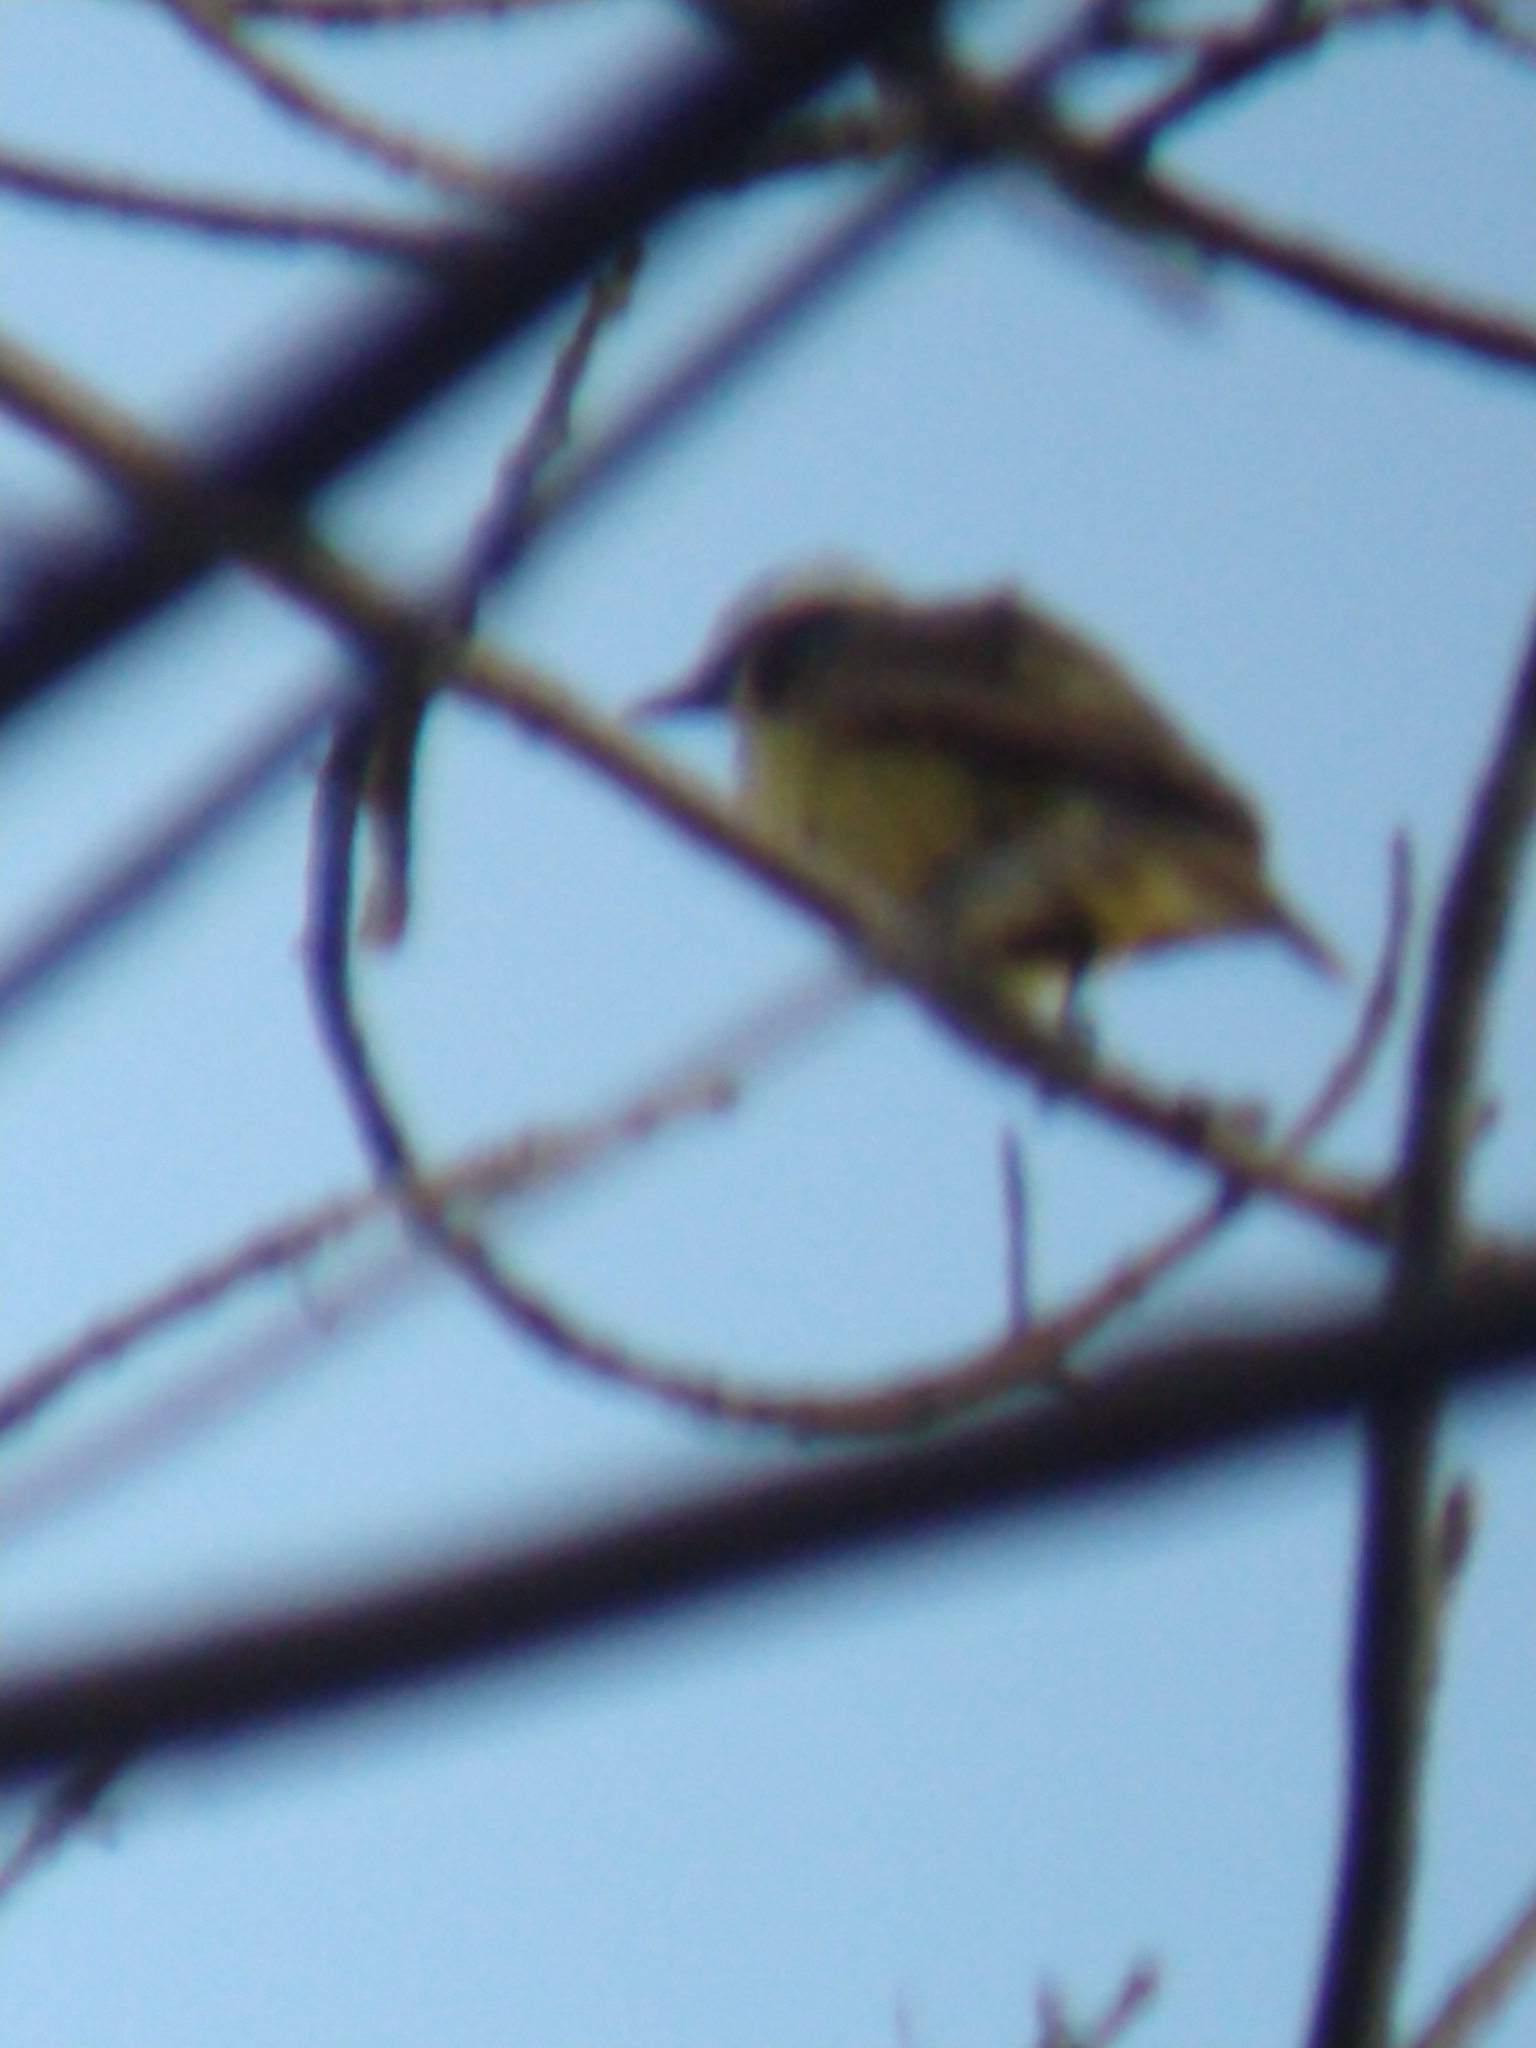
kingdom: Animalia
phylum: Chordata
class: Aves
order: Passeriformes
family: Tyrannidae
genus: Pitangus
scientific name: Pitangus sulphuratus
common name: Great kiskadee
